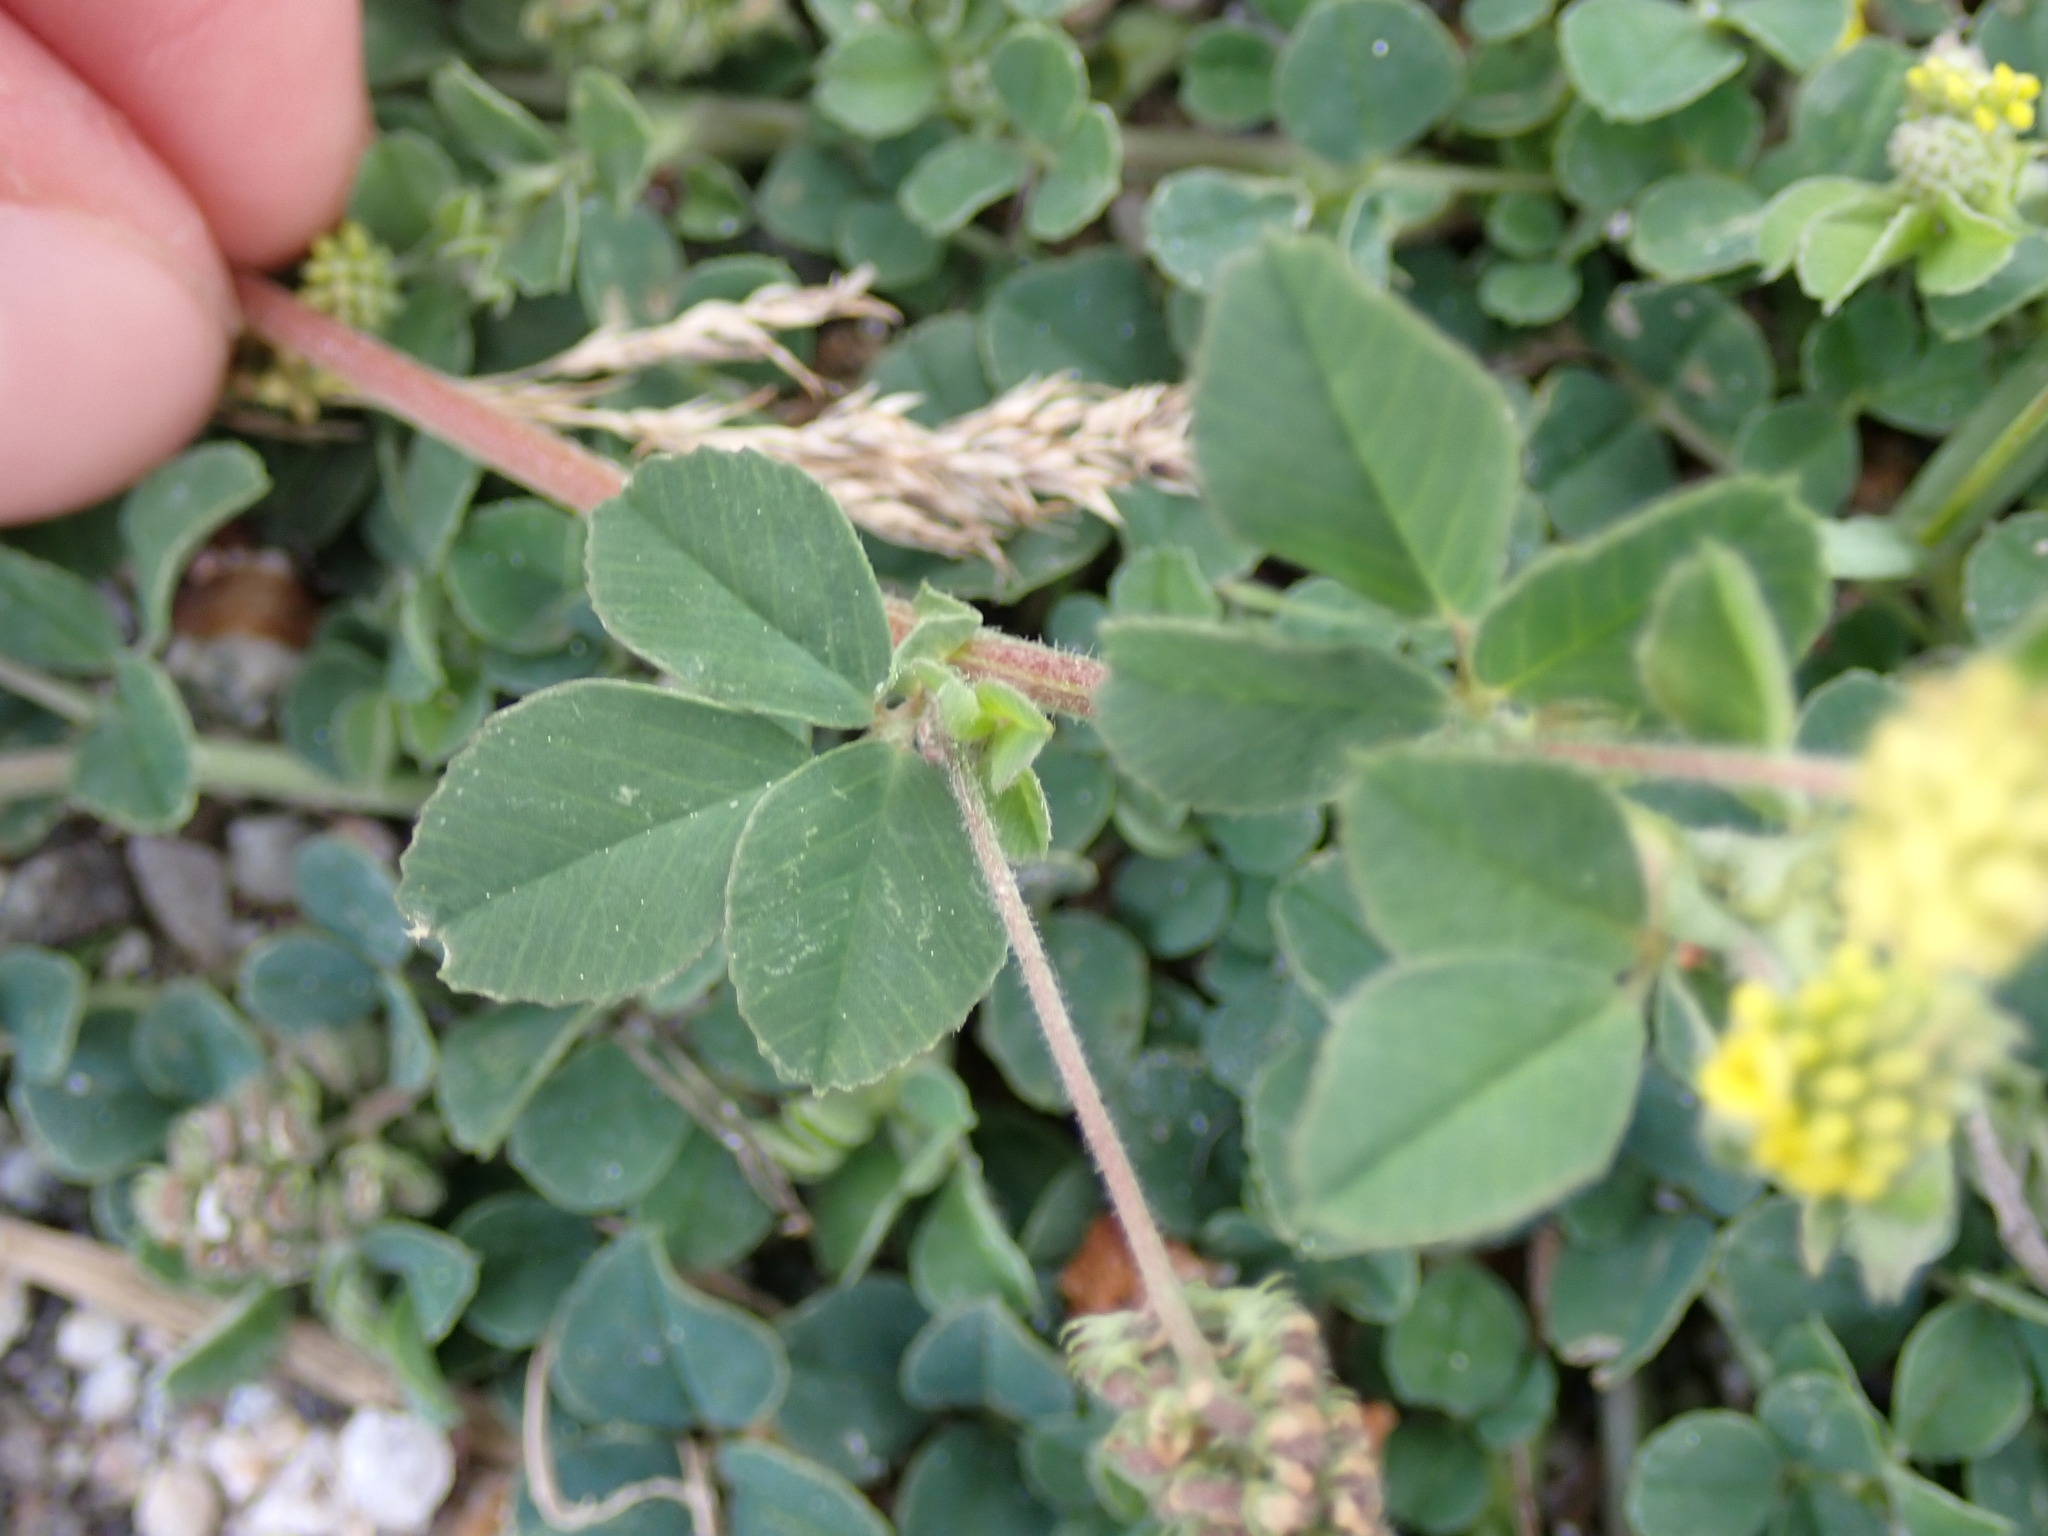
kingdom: Plantae
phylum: Tracheophyta
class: Magnoliopsida
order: Fabales
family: Fabaceae
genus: Medicago
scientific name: Medicago lupulina
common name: Black medick
